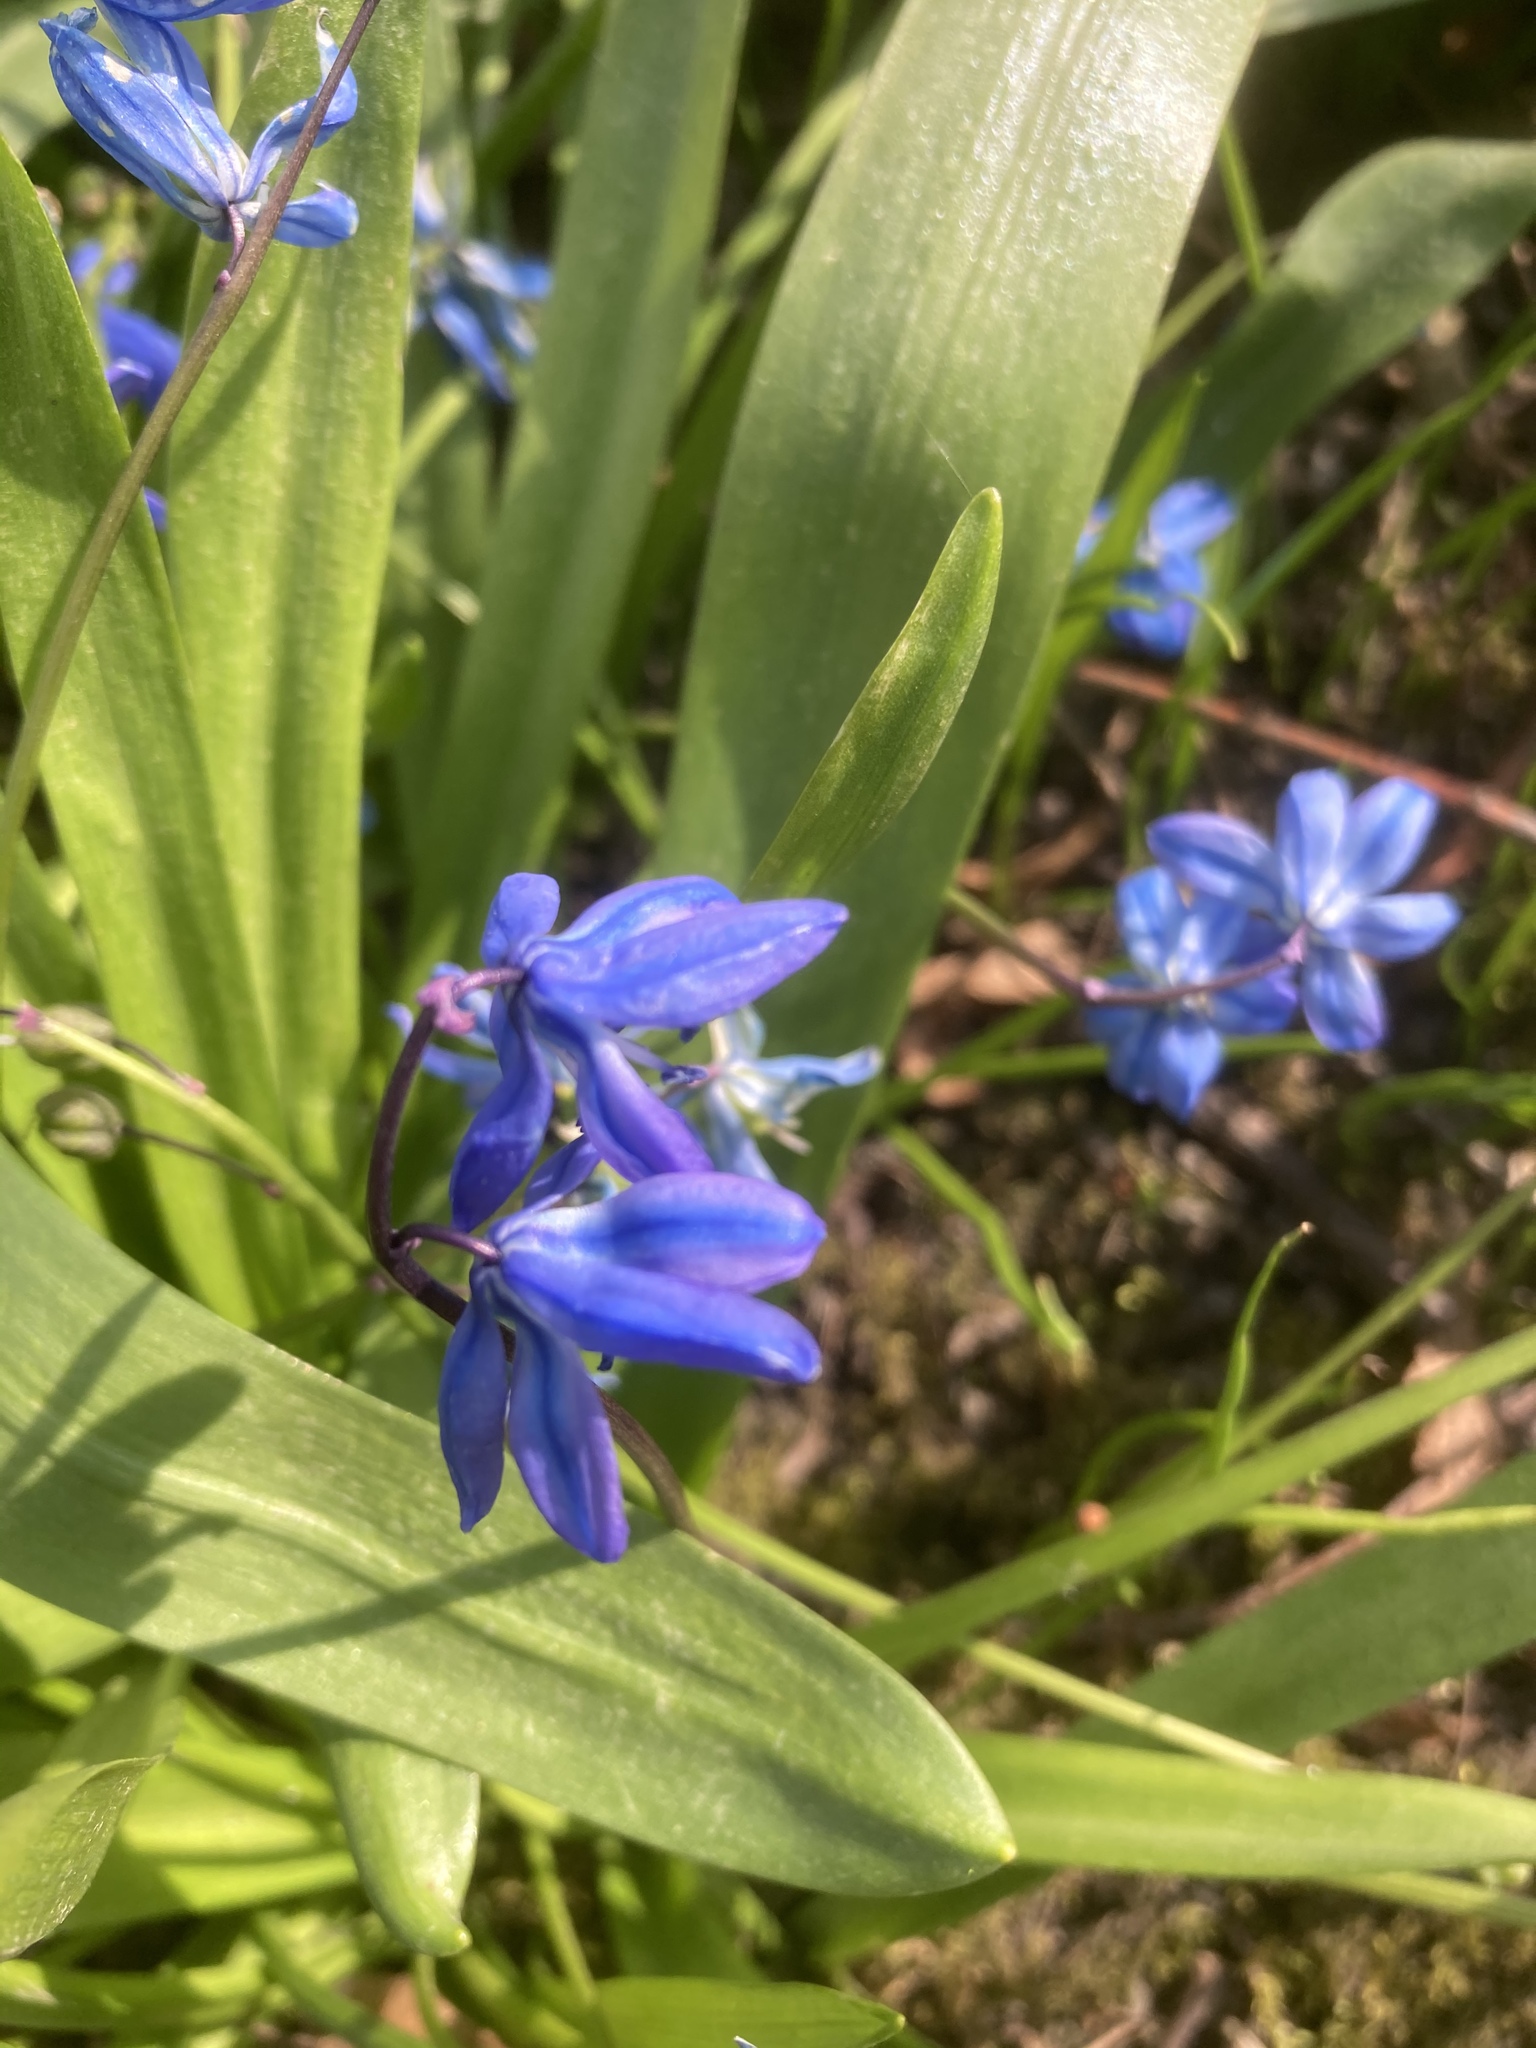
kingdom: Plantae
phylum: Tracheophyta
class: Liliopsida
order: Asparagales
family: Asparagaceae
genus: Scilla
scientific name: Scilla siberica
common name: Siberian squill
